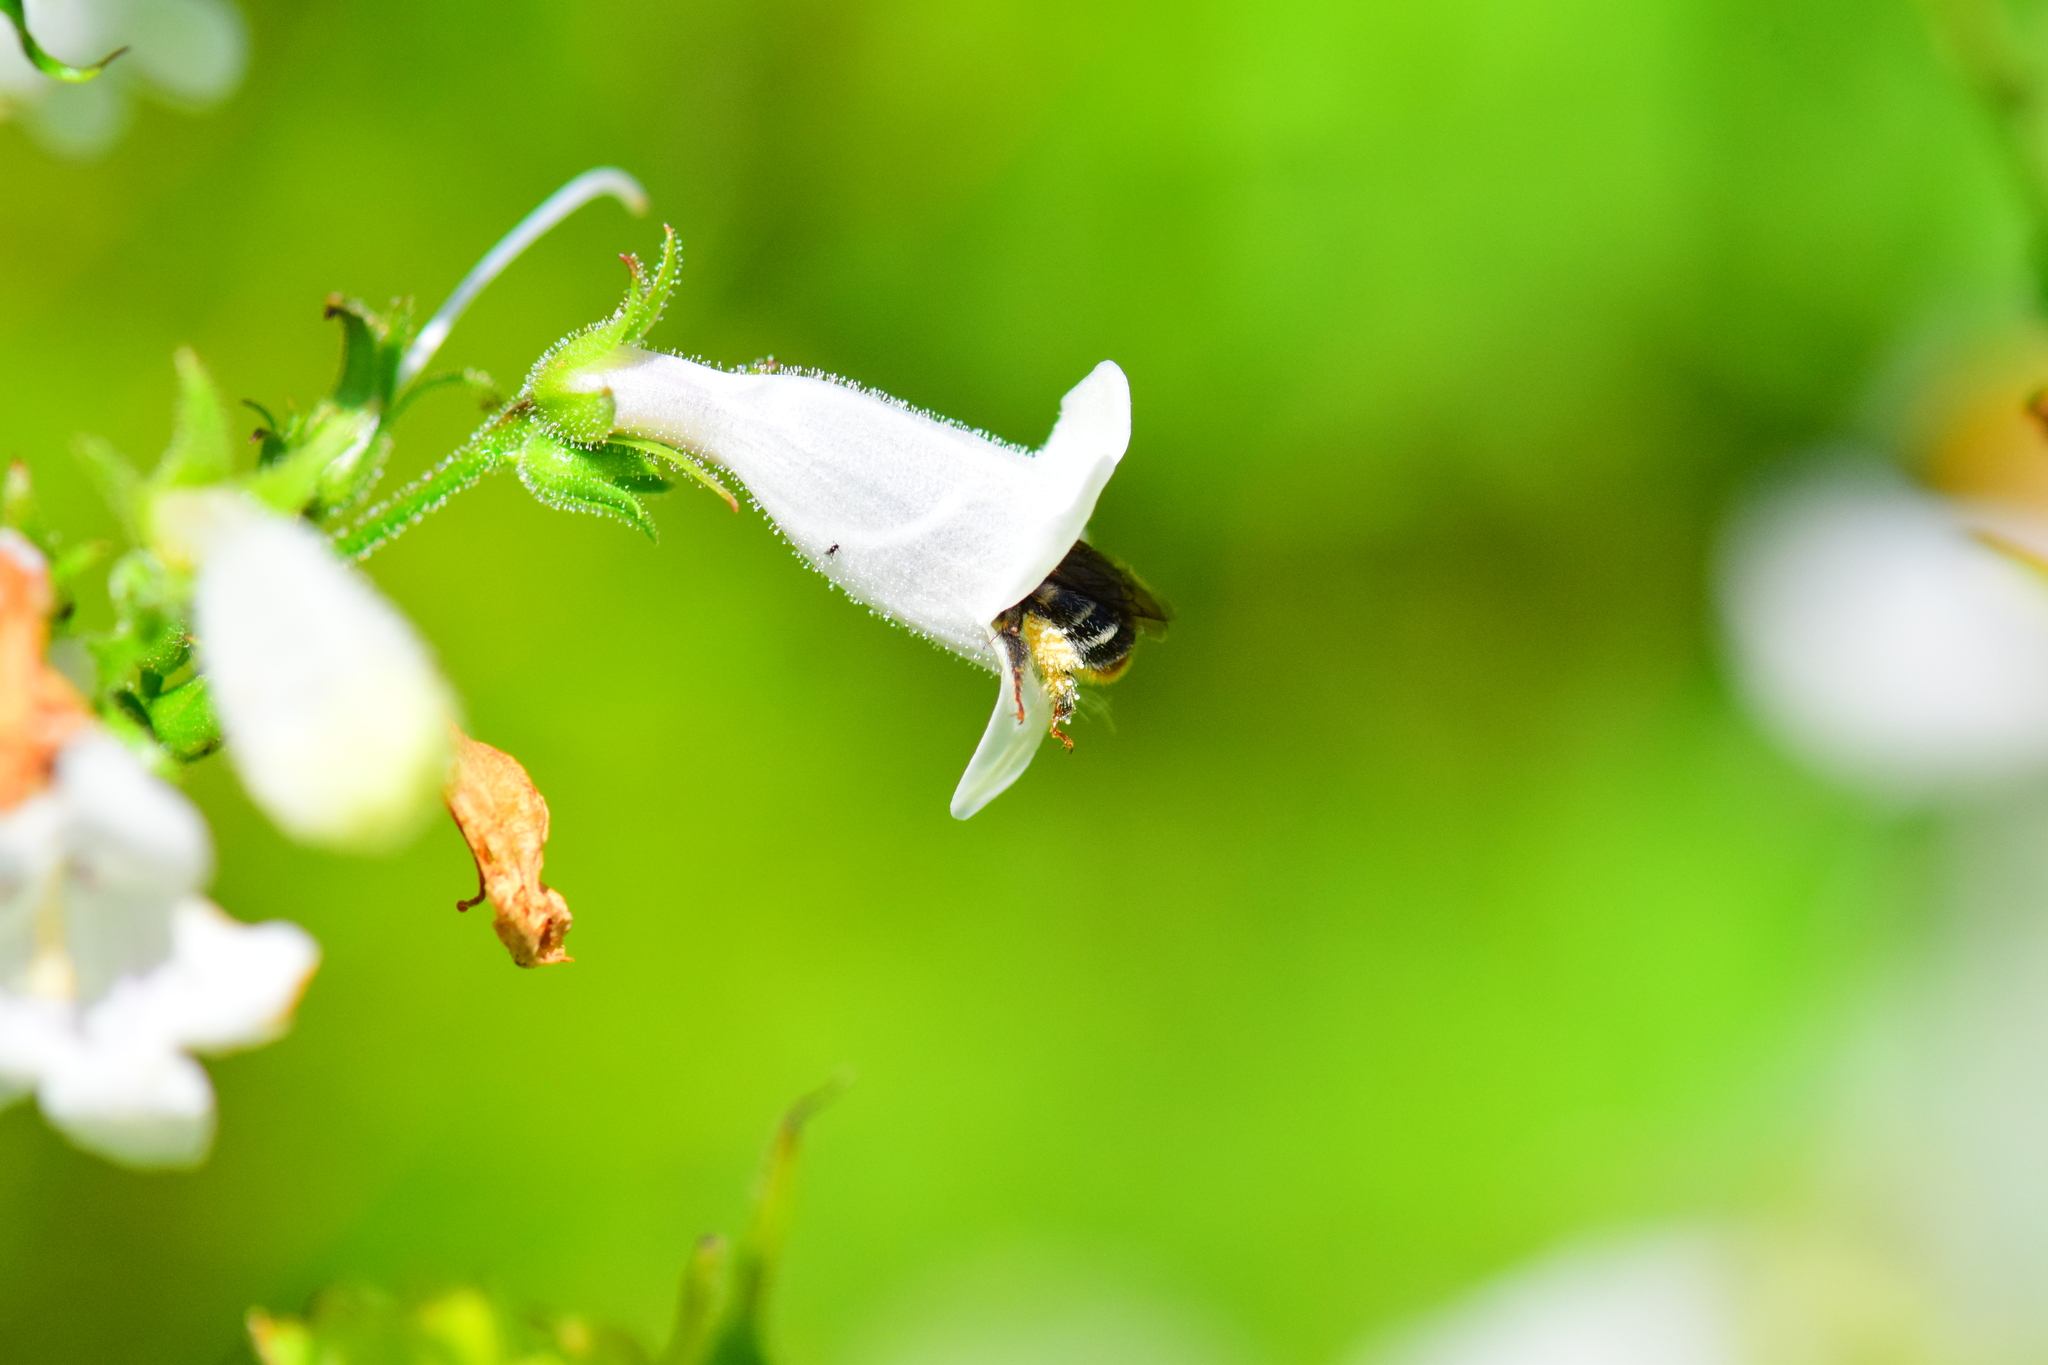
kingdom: Animalia
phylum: Arthropoda
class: Insecta
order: Hymenoptera
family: Apidae
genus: Anthophora
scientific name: Anthophora terminalis
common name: Orange-tipped wood-digger bee
